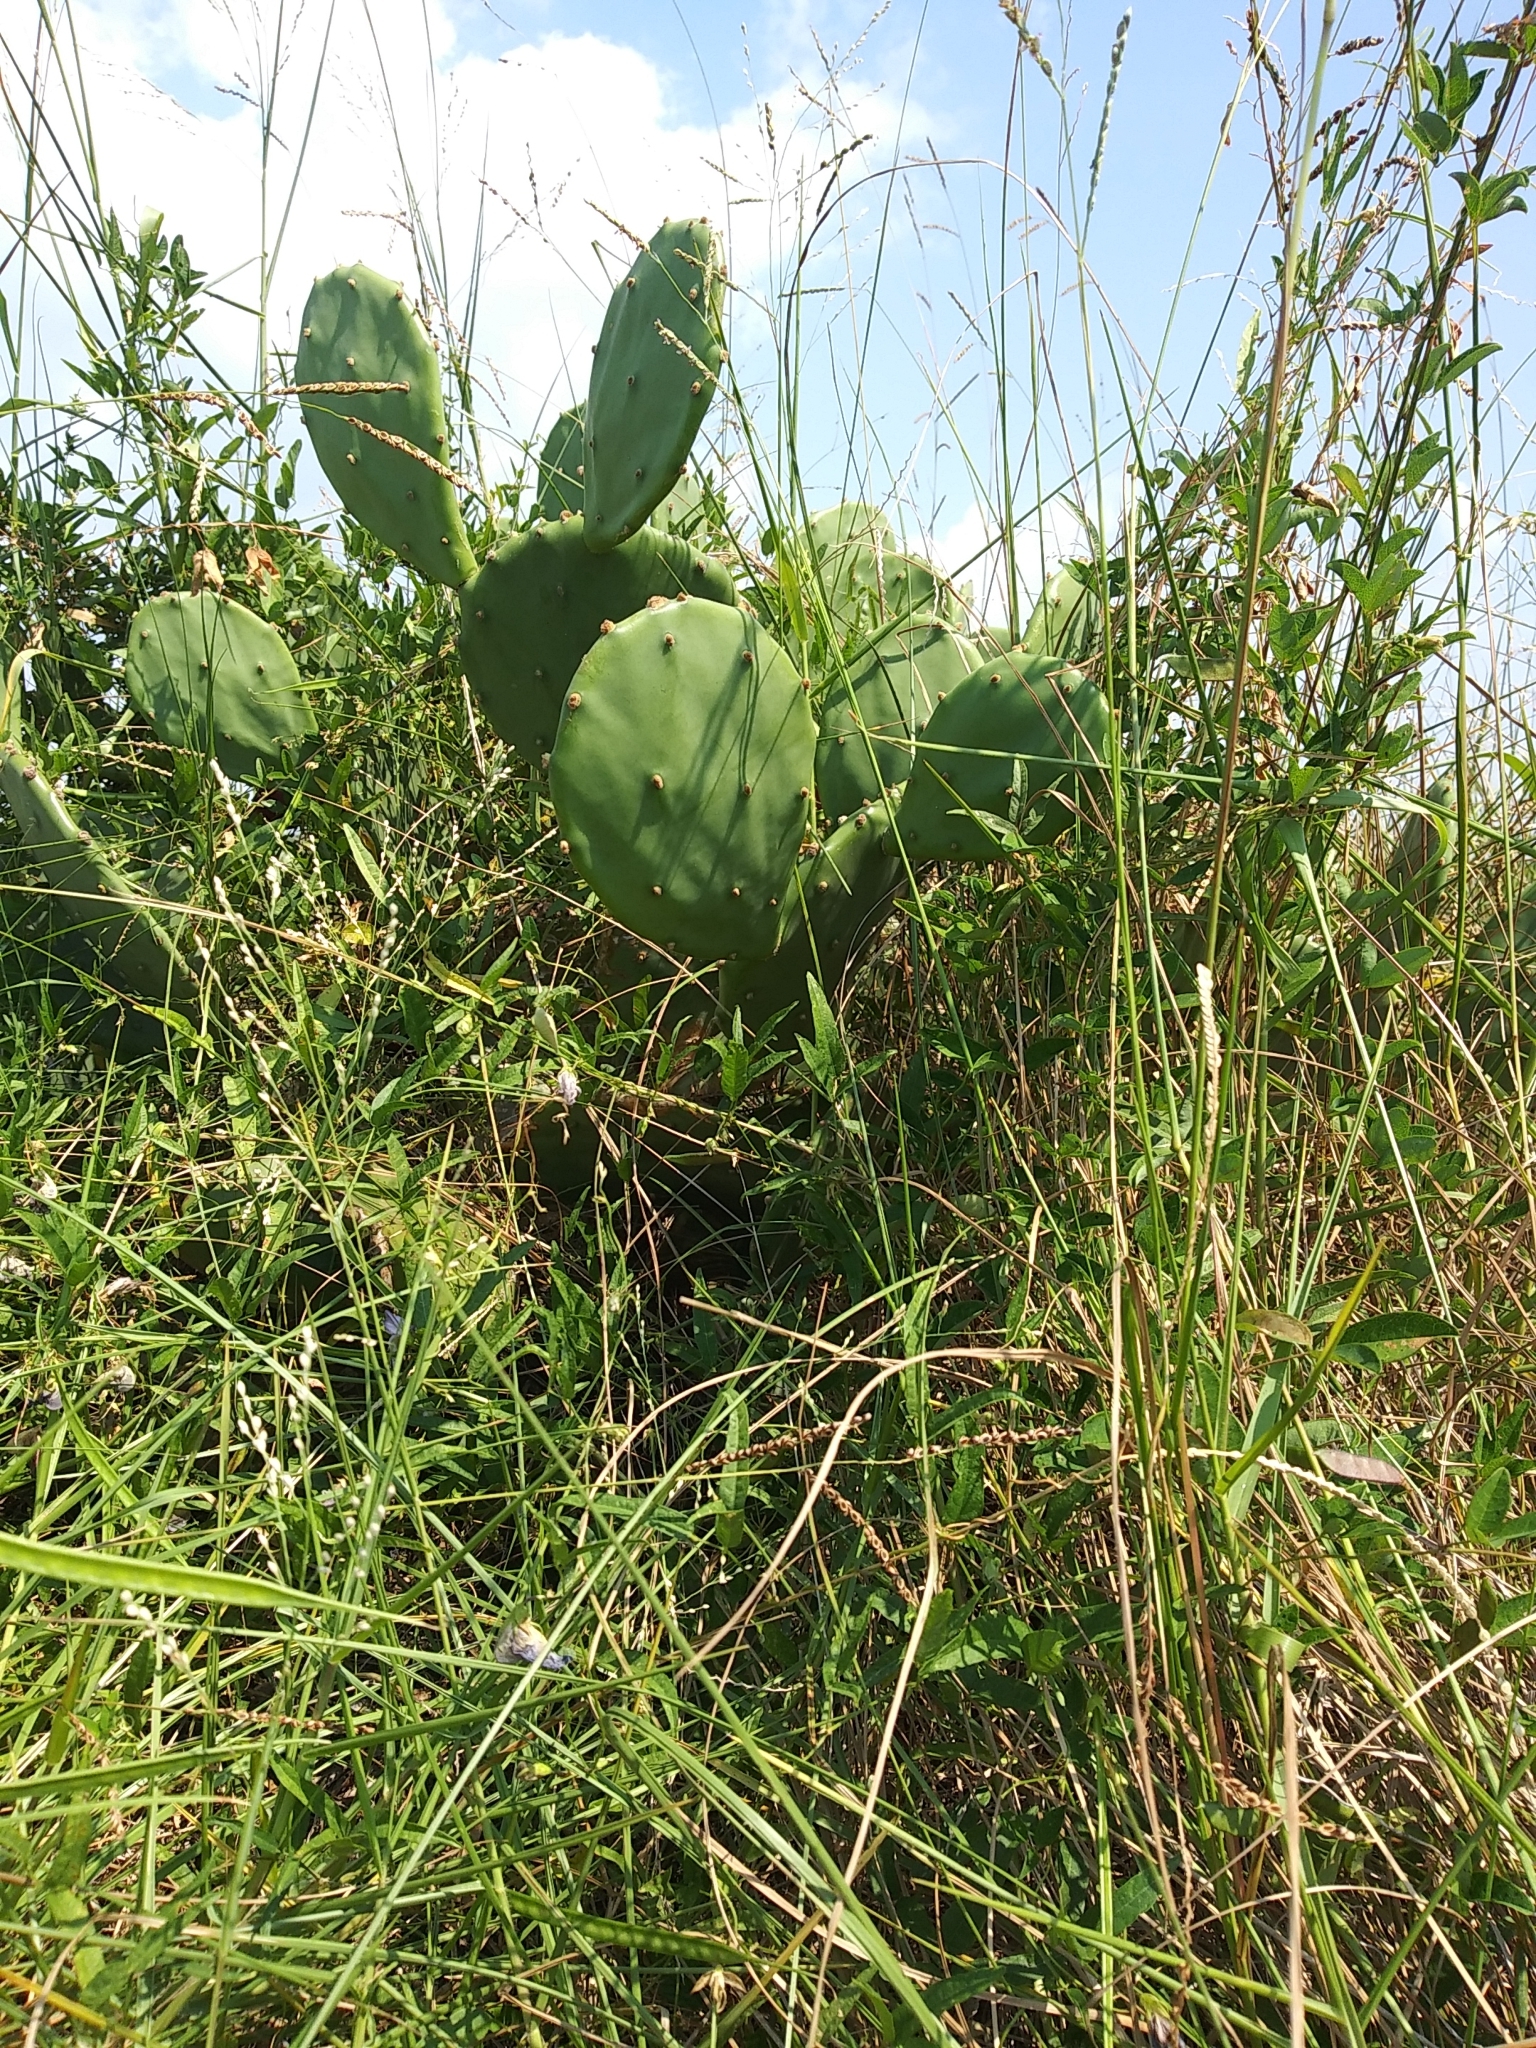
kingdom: Plantae
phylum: Tracheophyta
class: Magnoliopsida
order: Caryophyllales
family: Cactaceae
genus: Opuntia
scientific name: Opuntia stricta
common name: Erect pricklypear
